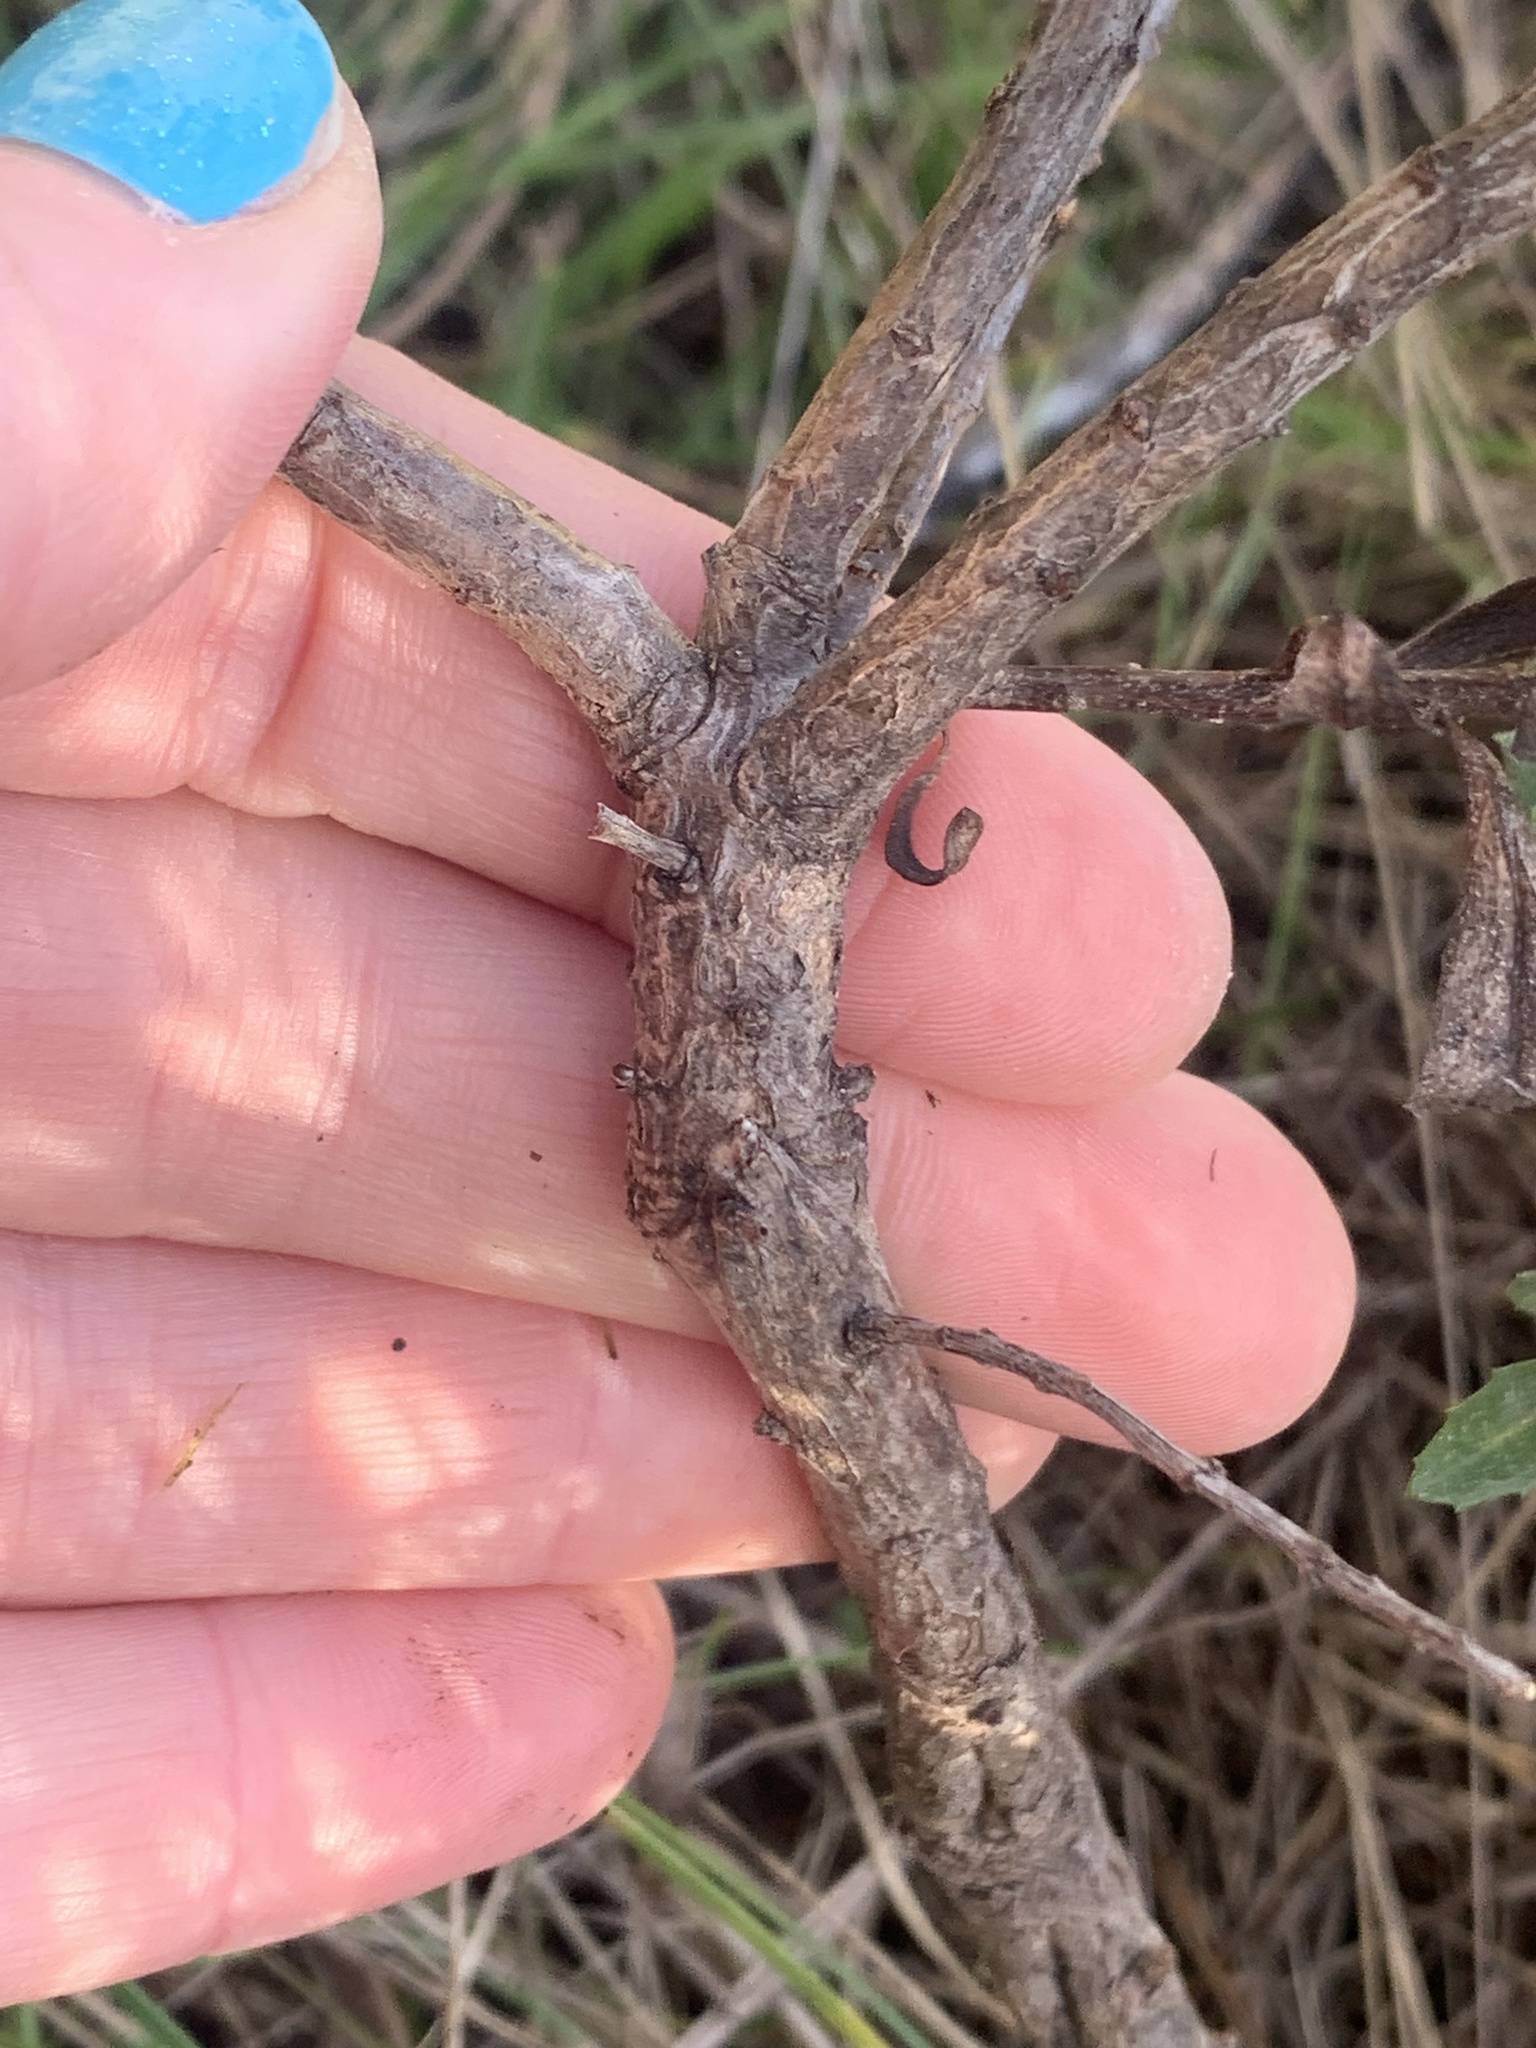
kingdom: Plantae
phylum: Tracheophyta
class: Magnoliopsida
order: Asterales
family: Asteraceae
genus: Baccharis
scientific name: Baccharis pilularis
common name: Coyotebrush
